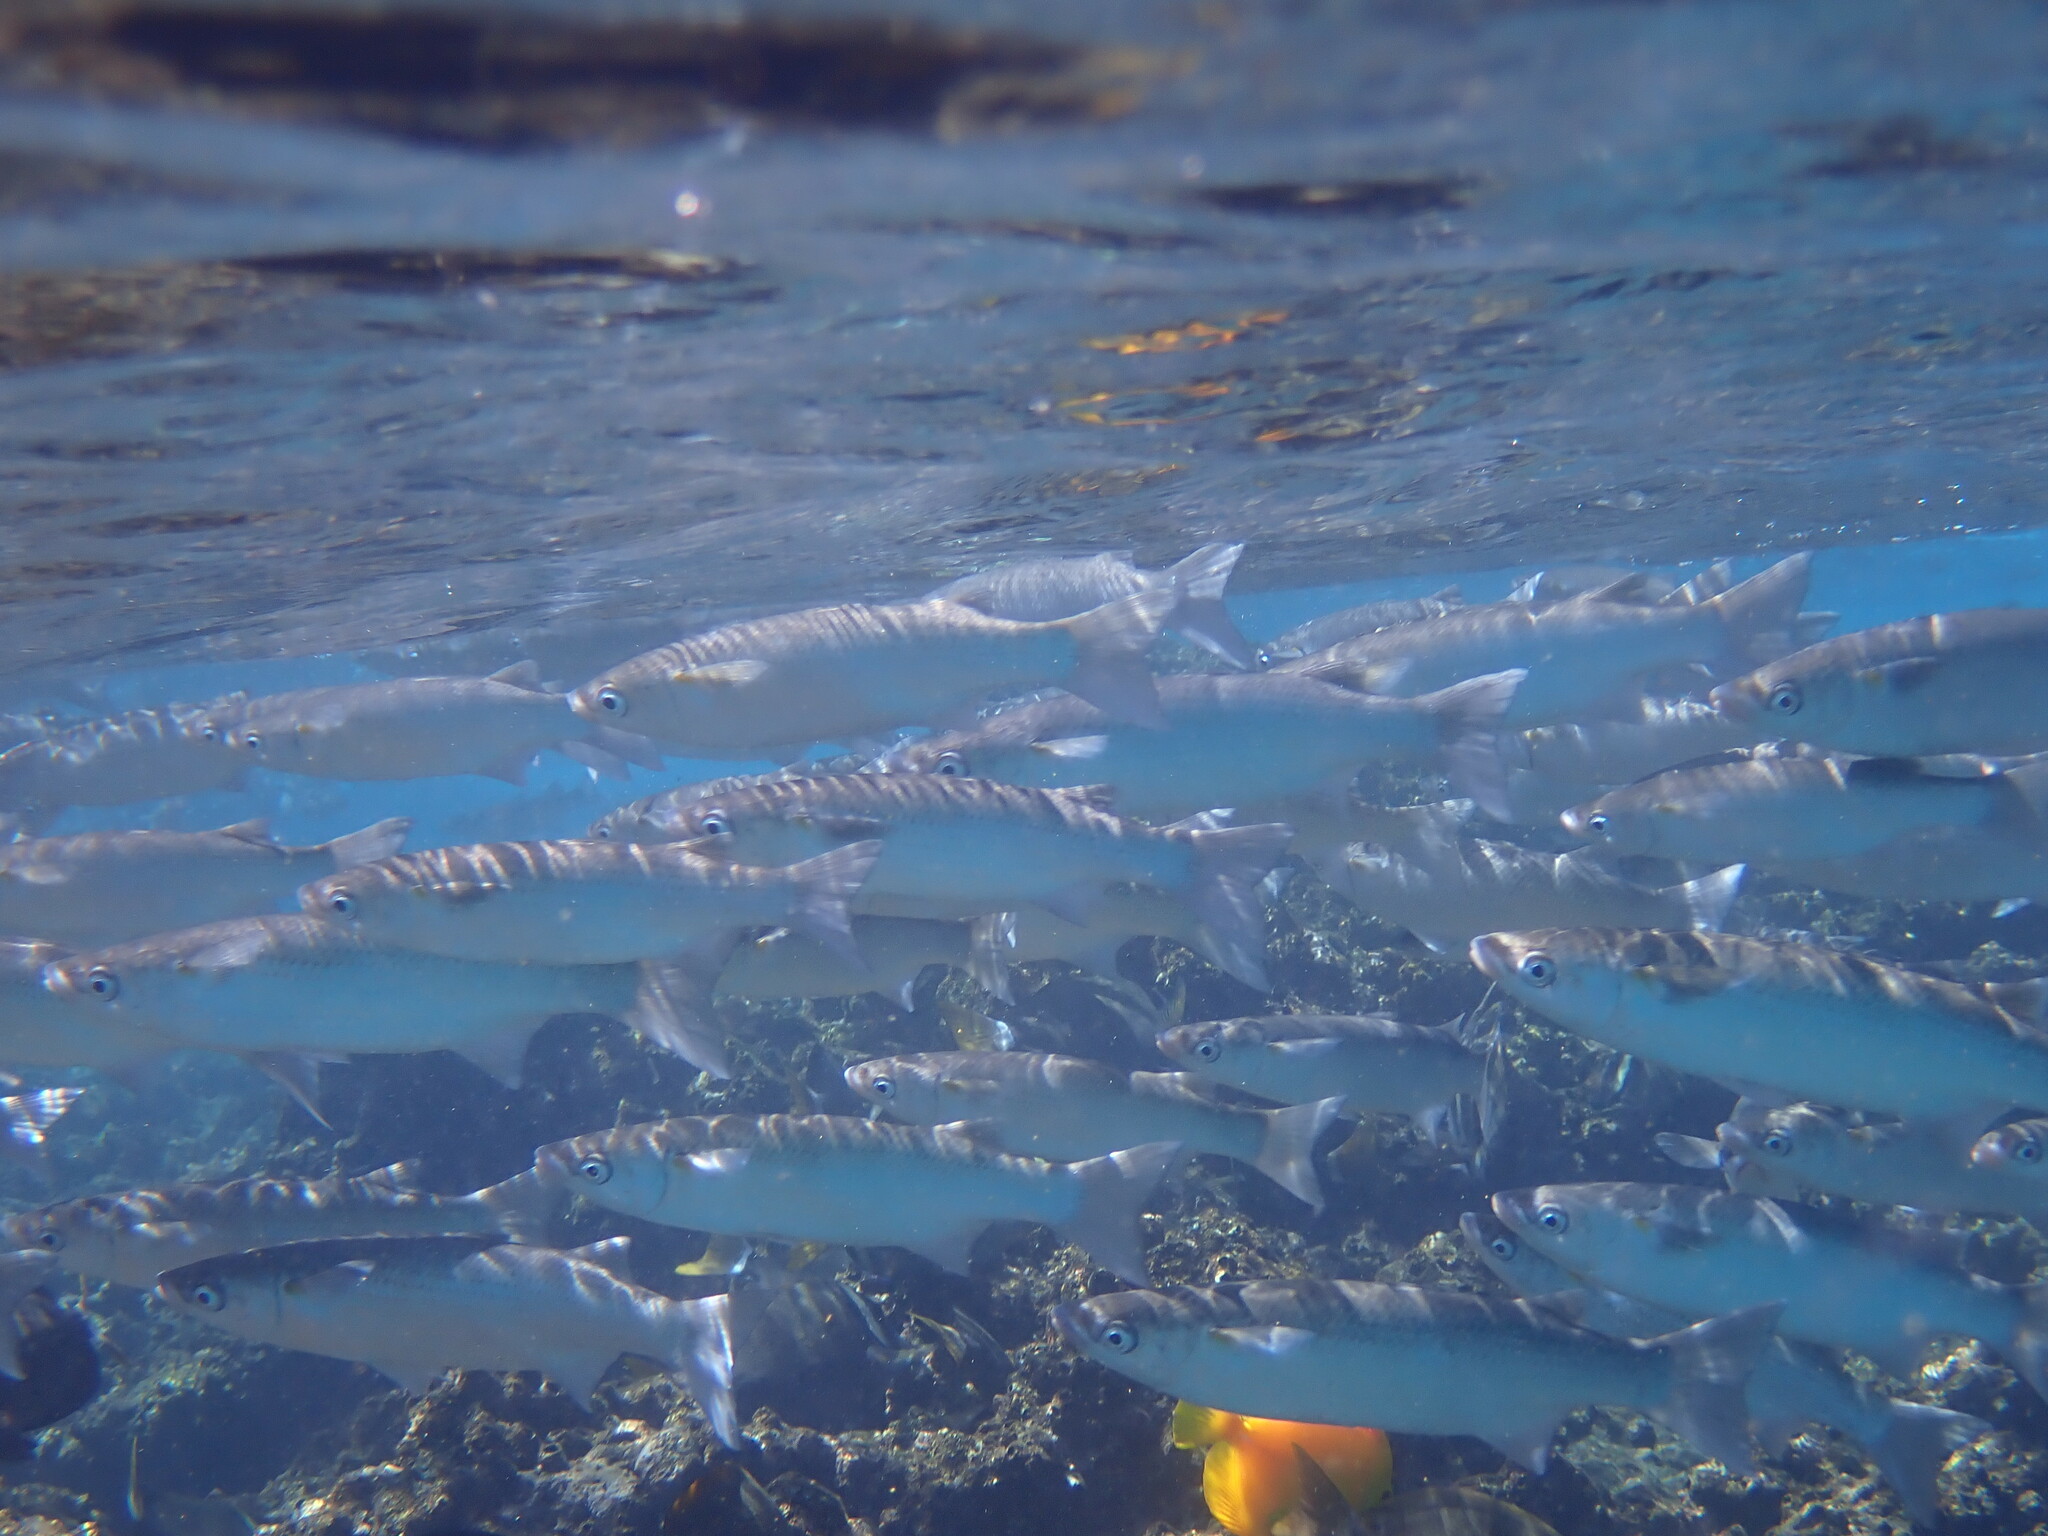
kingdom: Animalia
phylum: Chordata
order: Mugiliformes
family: Mugilidae
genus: Neomyxus
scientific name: Neomyxus leuciscus
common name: Acute-jawed mullet
